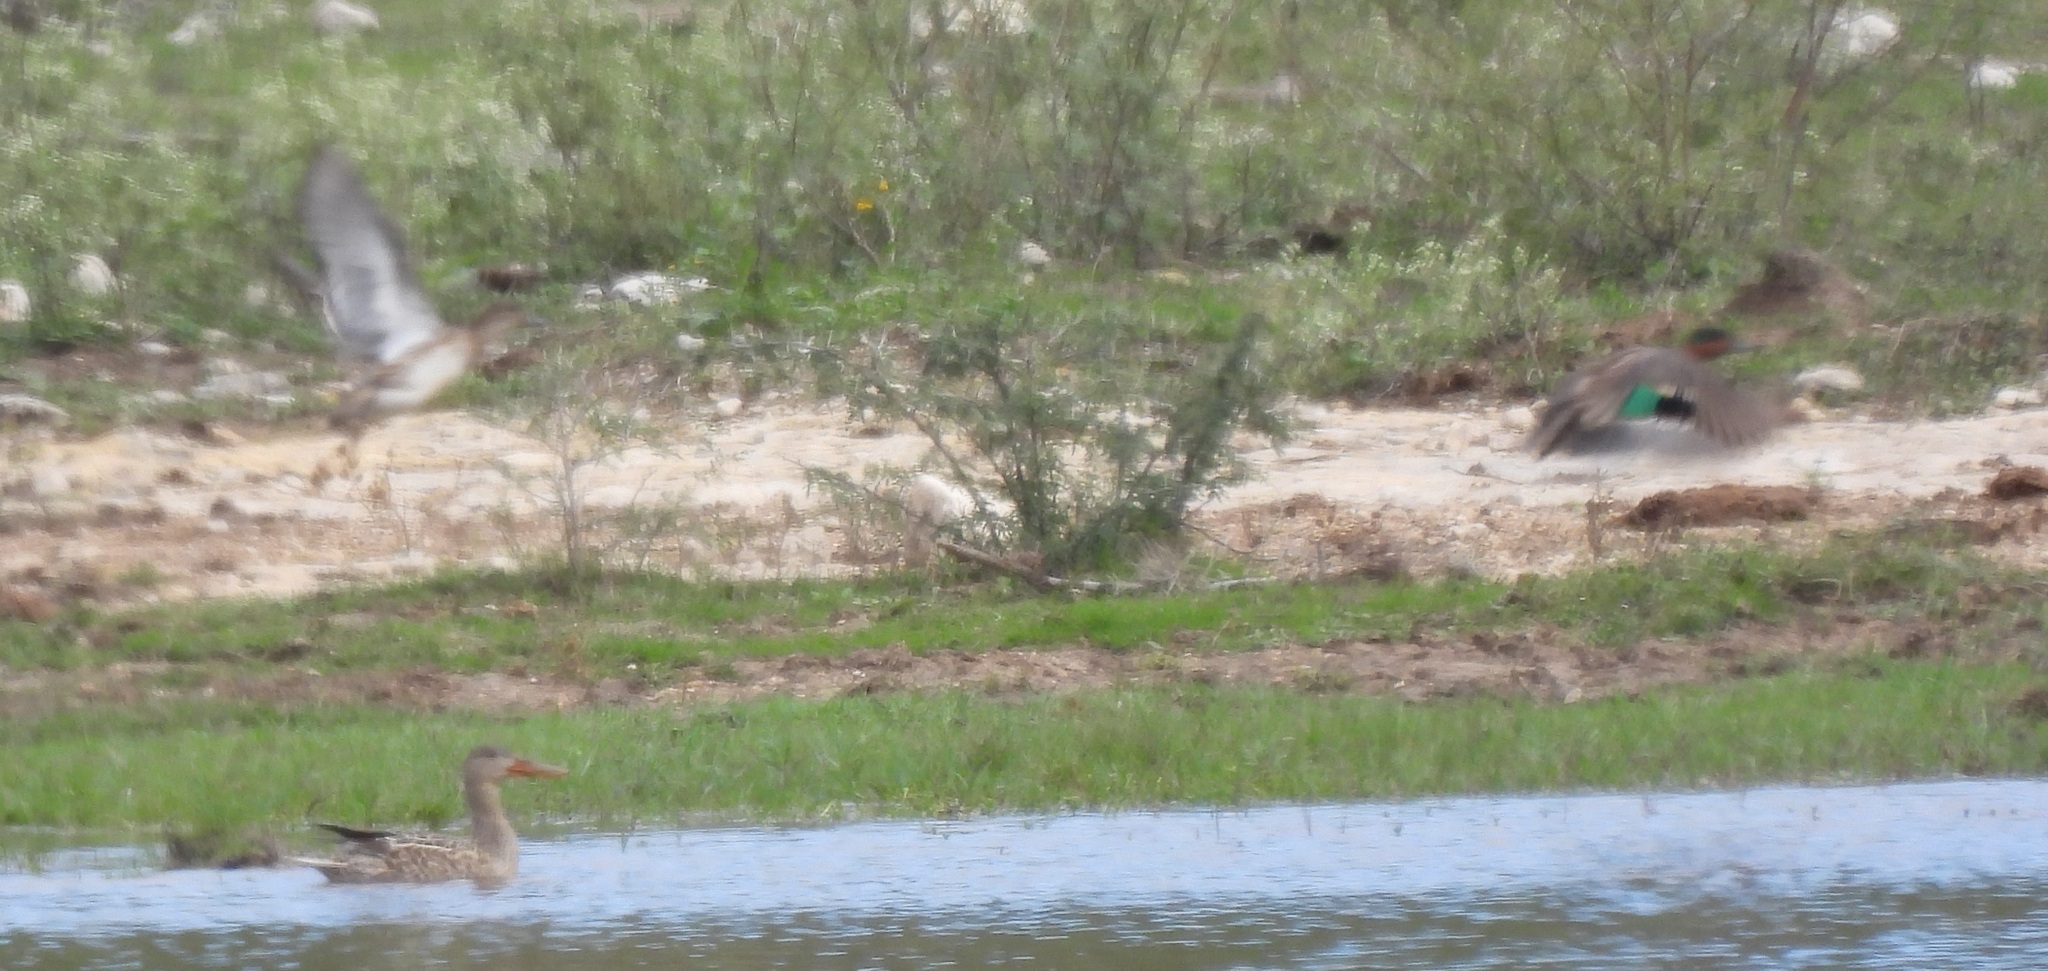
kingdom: Animalia
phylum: Chordata
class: Aves
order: Anseriformes
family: Anatidae
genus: Anas
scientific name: Anas crecca
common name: Eurasian teal
